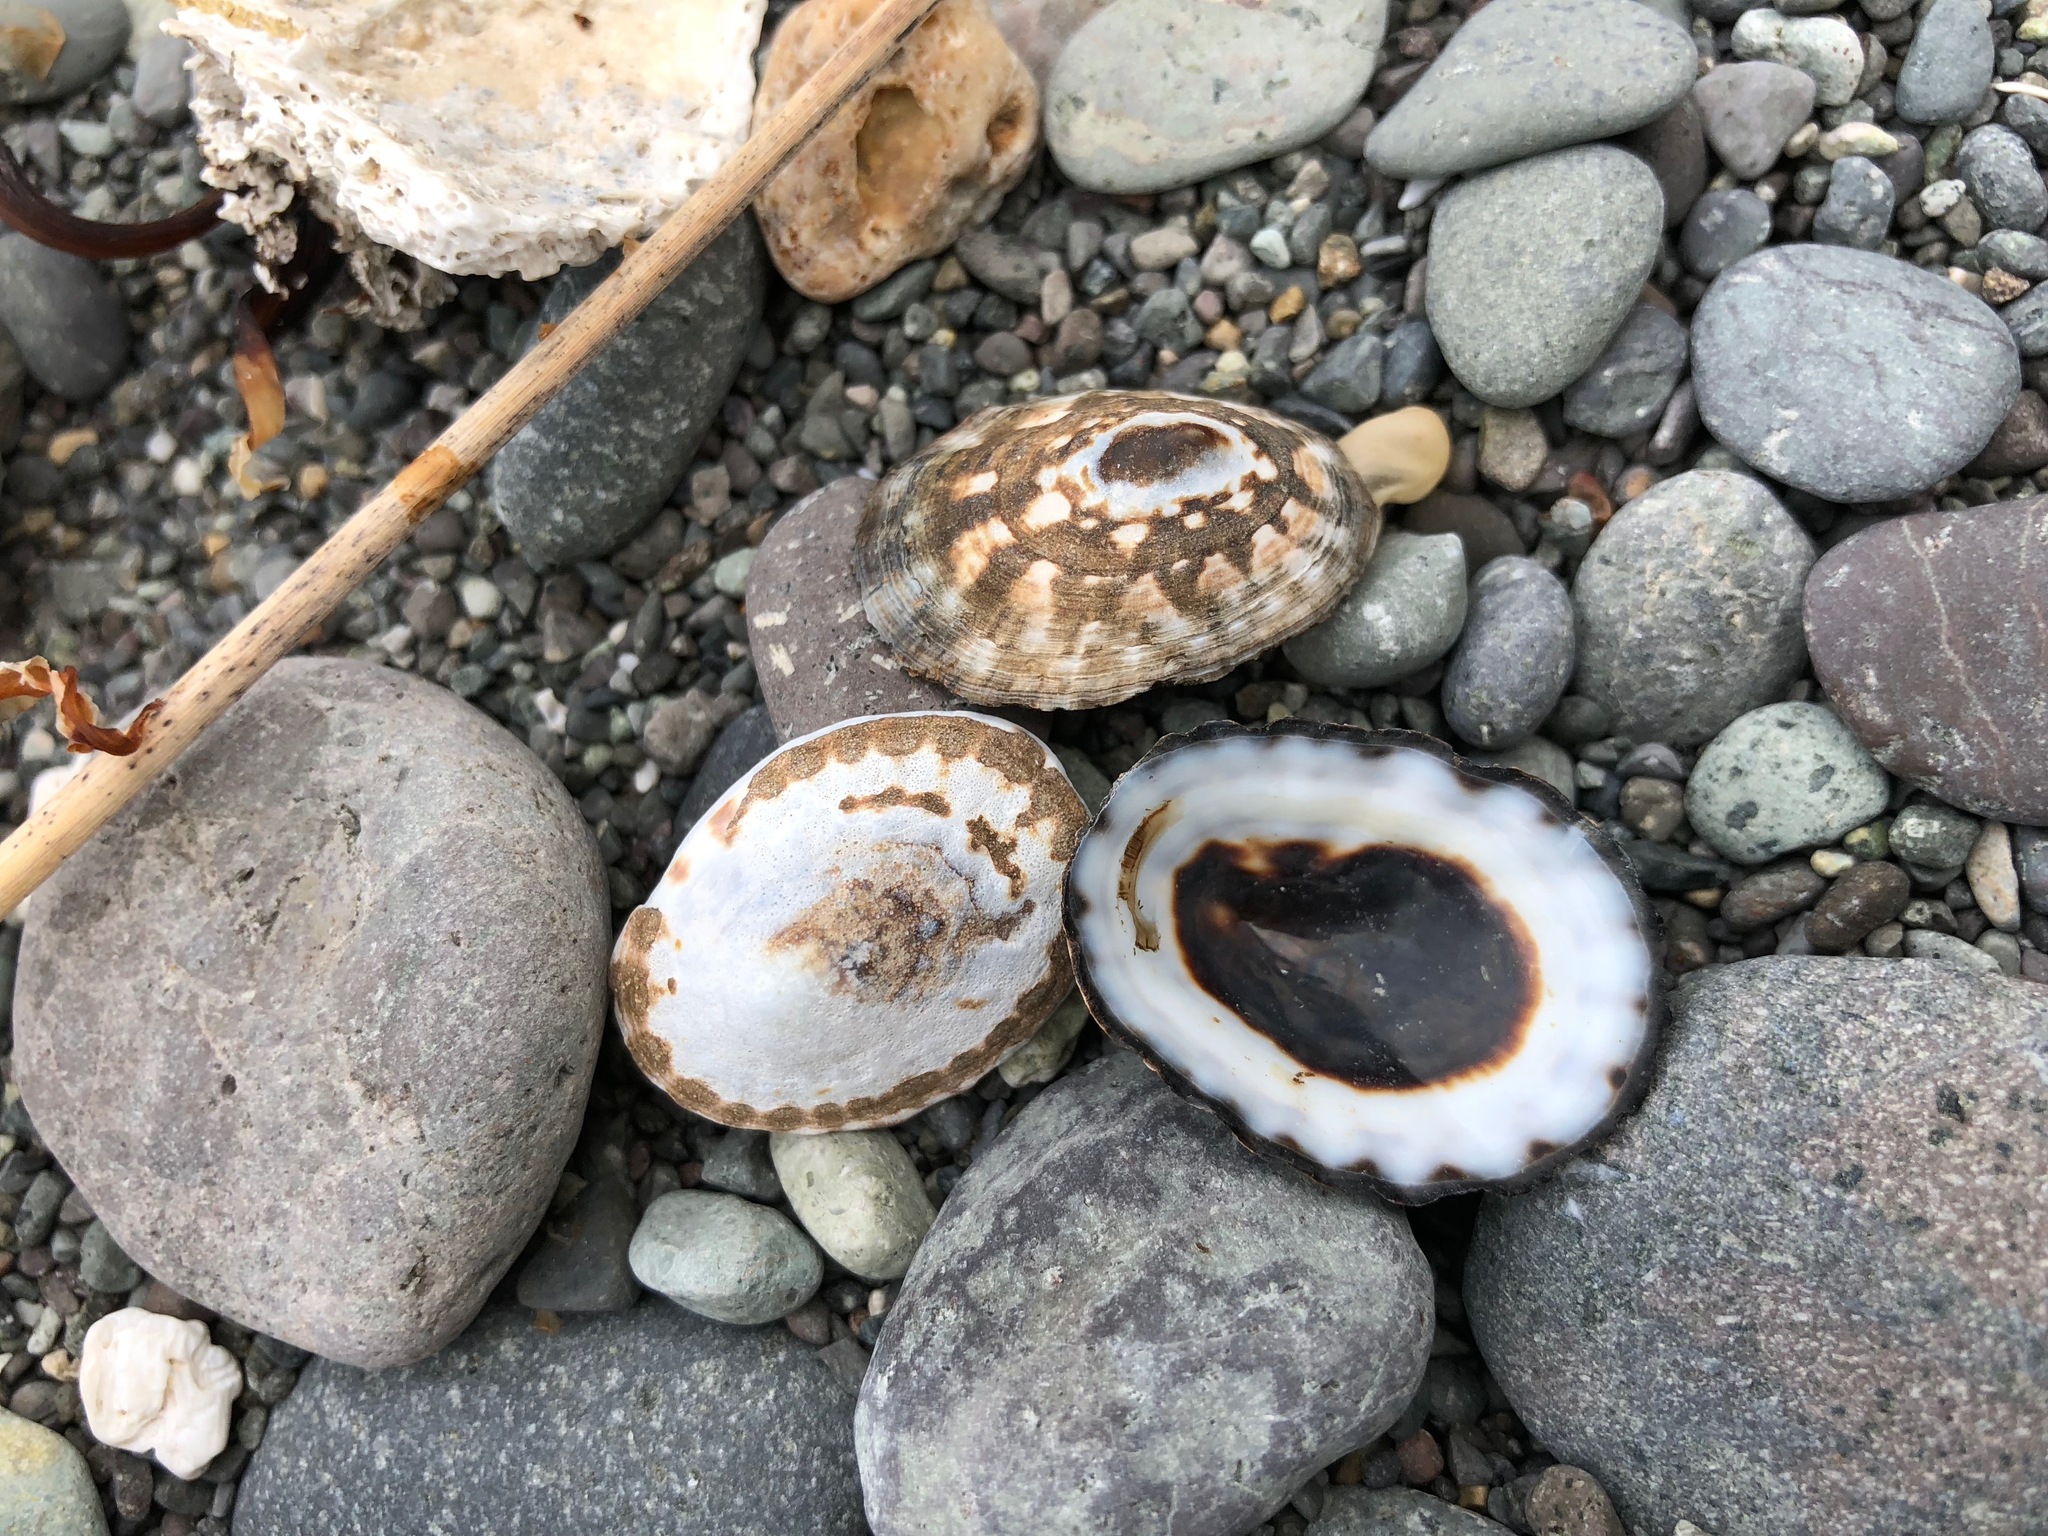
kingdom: Animalia
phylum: Mollusca
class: Gastropoda
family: Lottiidae
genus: Lottia
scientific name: Lottia pelta
